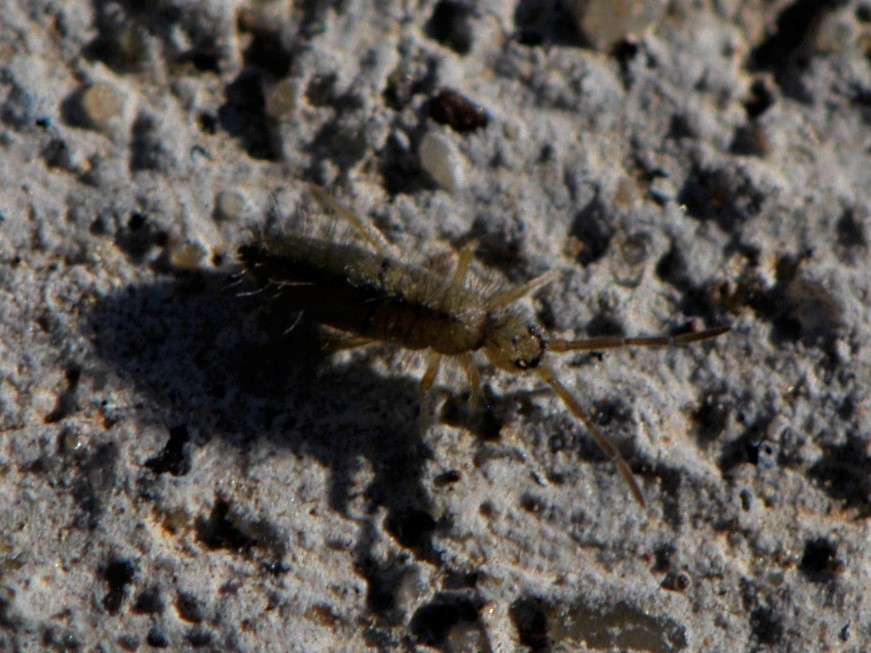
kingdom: Animalia
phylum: Arthropoda
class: Collembola
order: Entomobryomorpha
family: Entomobryidae
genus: Entomobrya
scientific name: Entomobrya unostrigata
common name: Springtail
